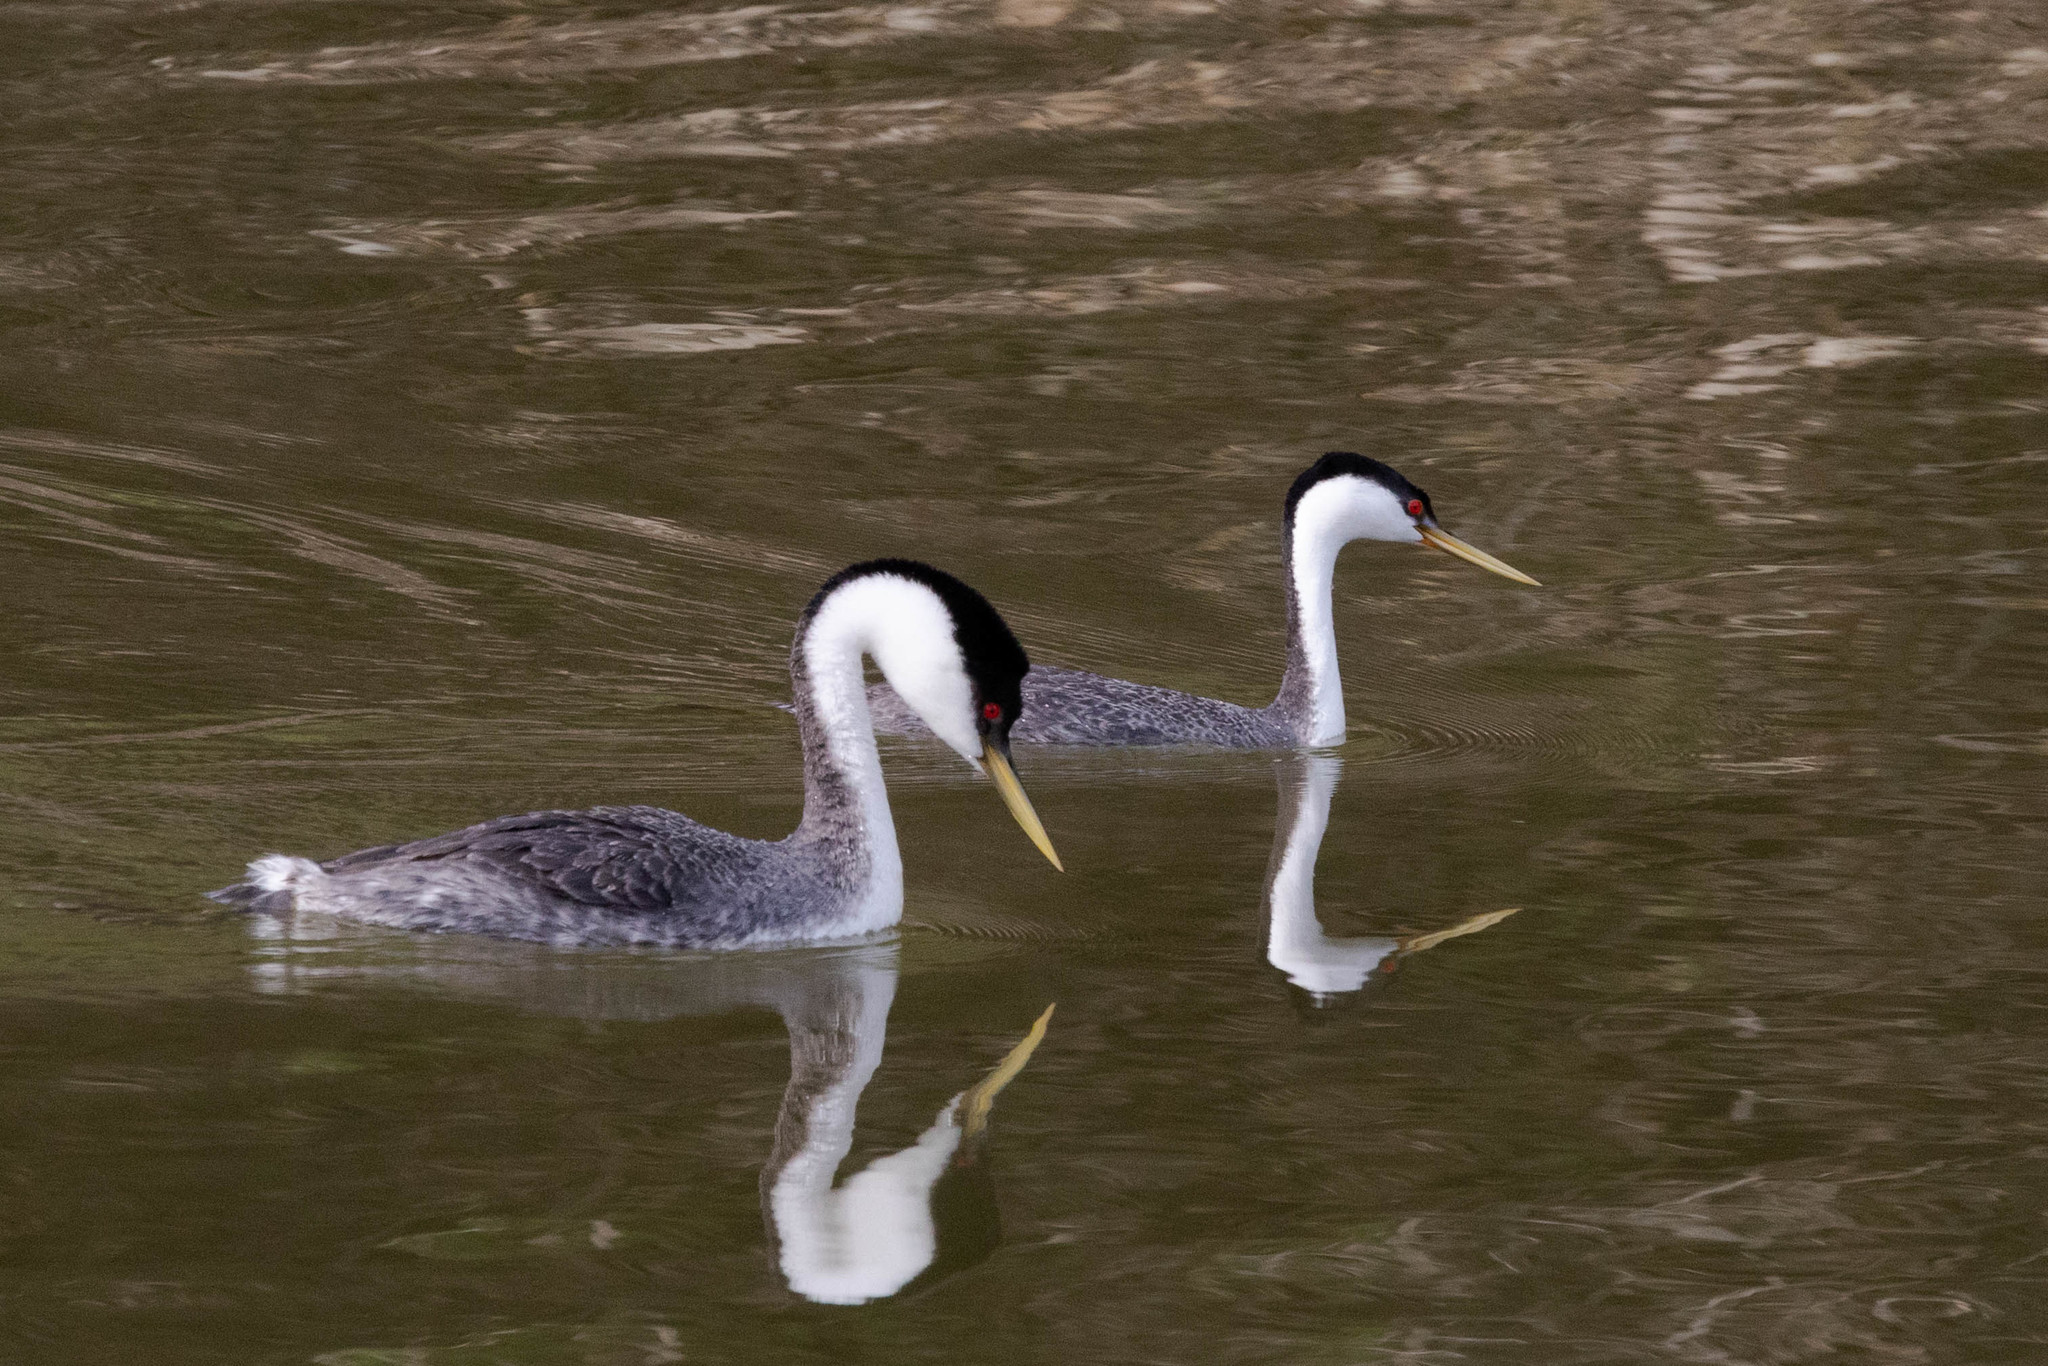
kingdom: Animalia
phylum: Chordata
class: Aves
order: Podicipediformes
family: Podicipedidae
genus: Aechmophorus
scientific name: Aechmophorus occidentalis
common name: Western grebe
